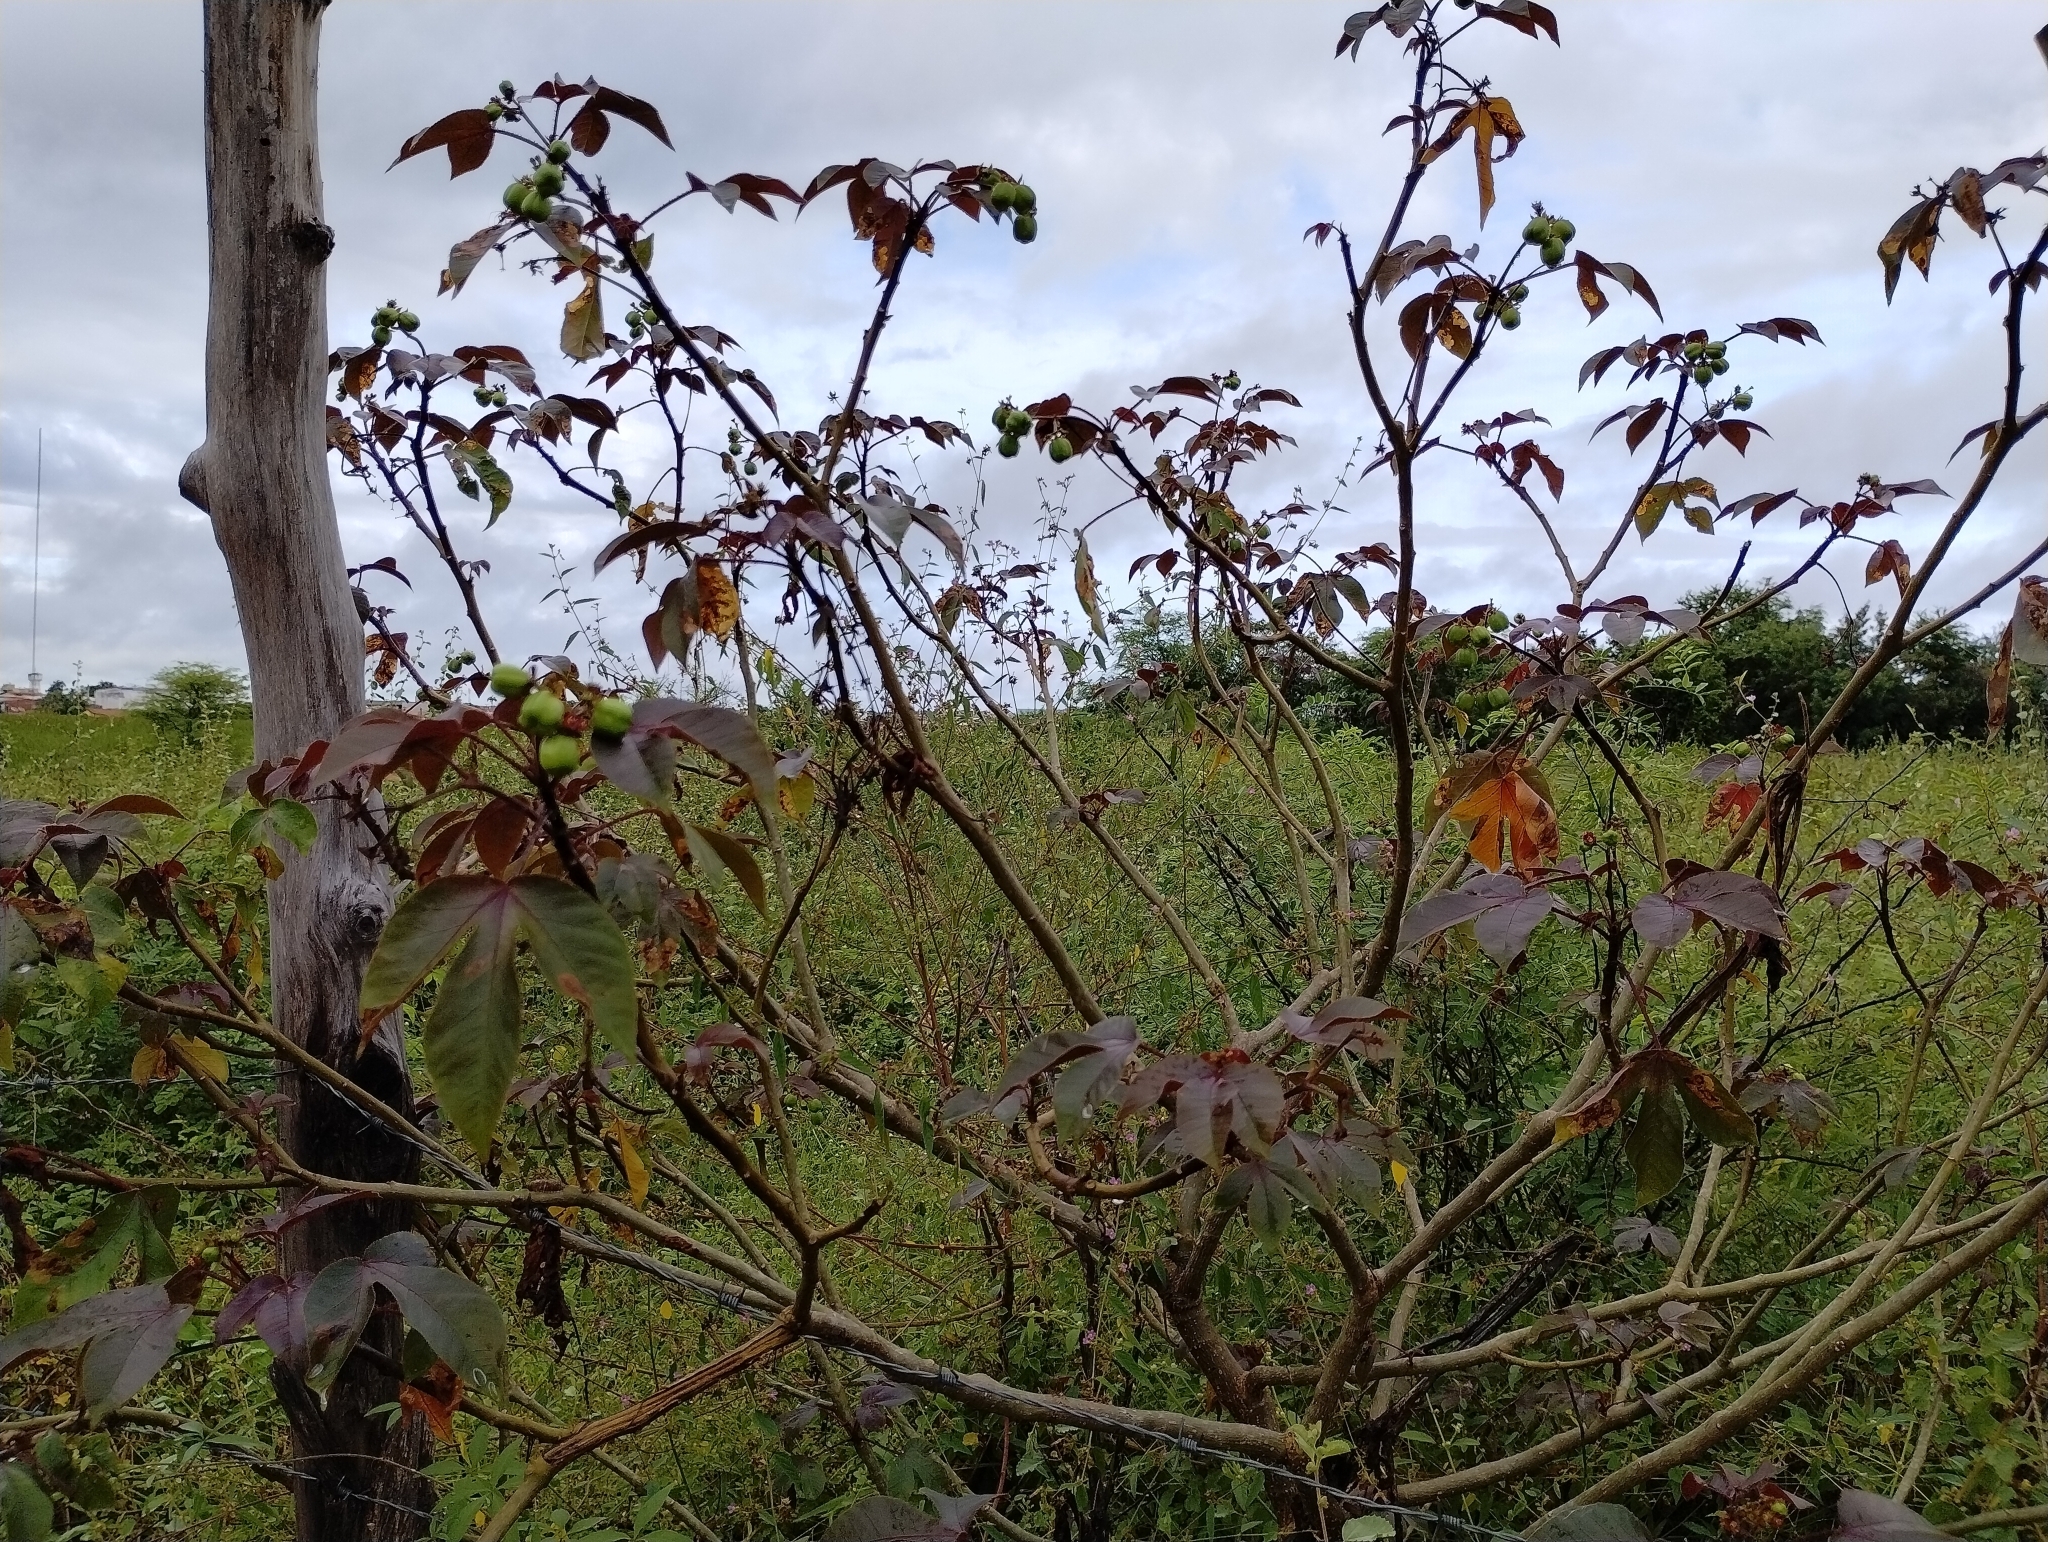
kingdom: Plantae
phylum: Tracheophyta
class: Magnoliopsida
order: Malpighiales
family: Euphorbiaceae
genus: Jatropha
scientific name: Jatropha gossypiifolia
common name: Bellyache bush
